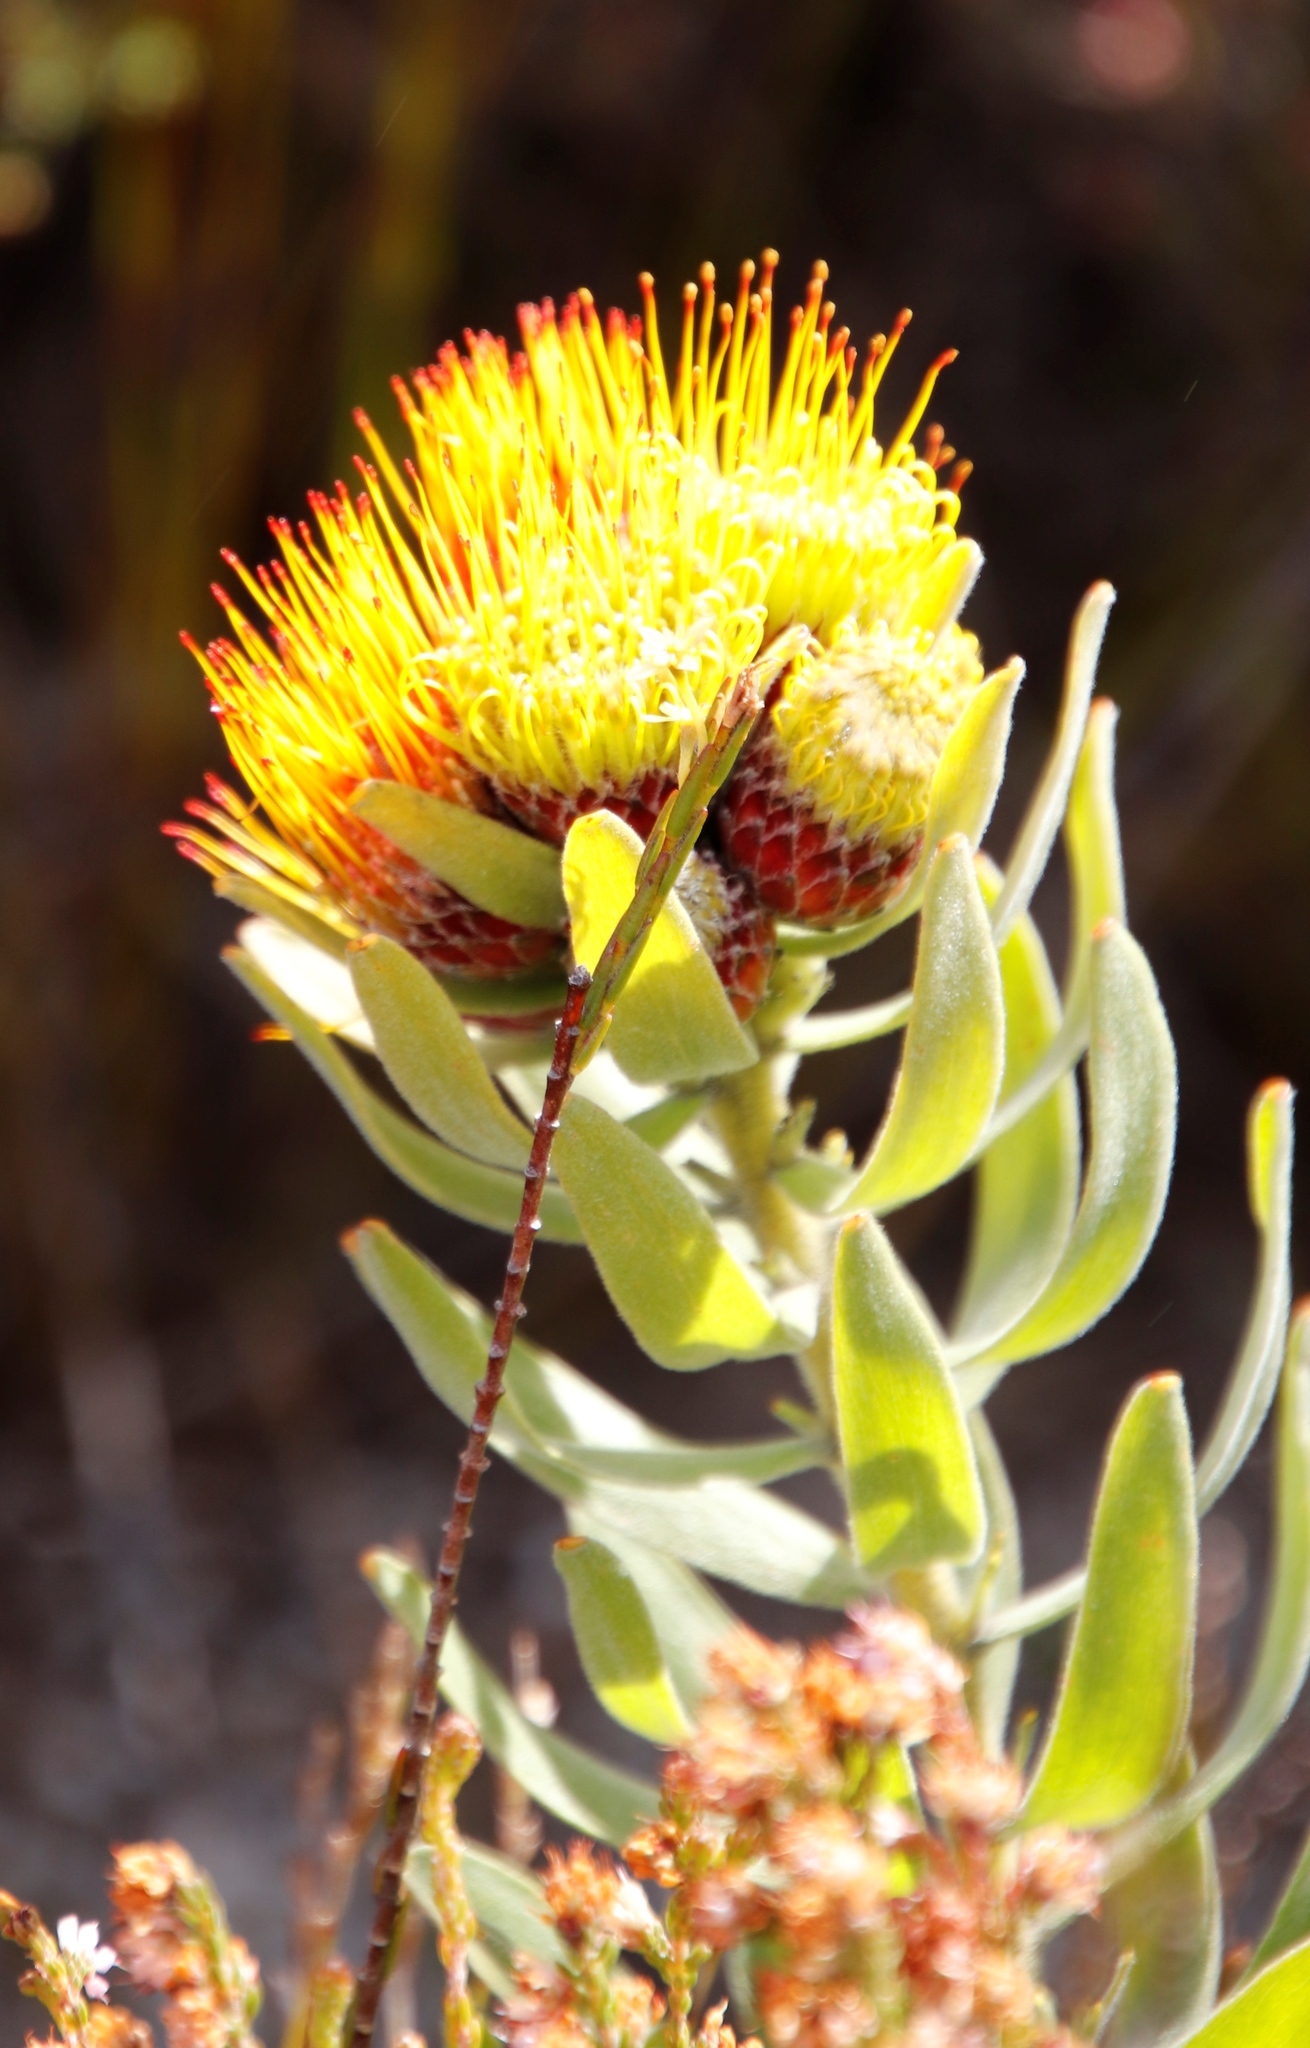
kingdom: Plantae
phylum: Tracheophyta
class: Magnoliopsida
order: Proteales
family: Proteaceae
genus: Leucospermum
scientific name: Leucospermum oleifolium
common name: Matches
